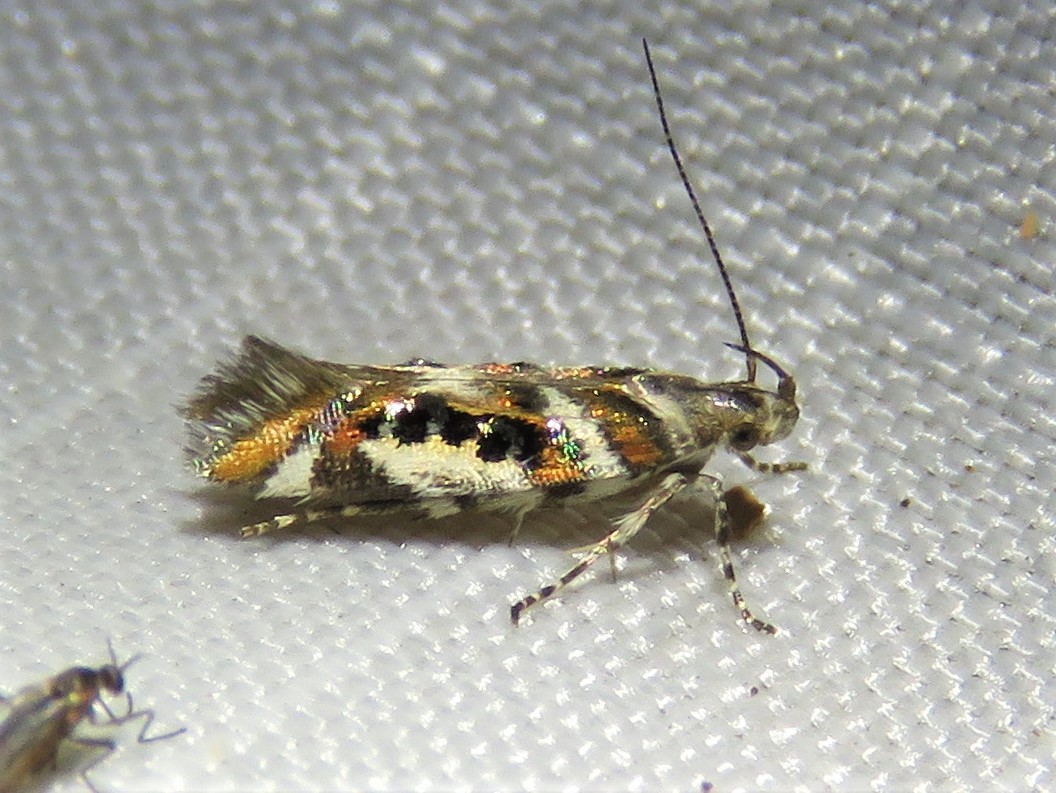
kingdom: Animalia
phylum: Arthropoda
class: Insecta
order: Lepidoptera
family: Gelechiidae
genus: Aristotelia
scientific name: Aristotelia elegantella
